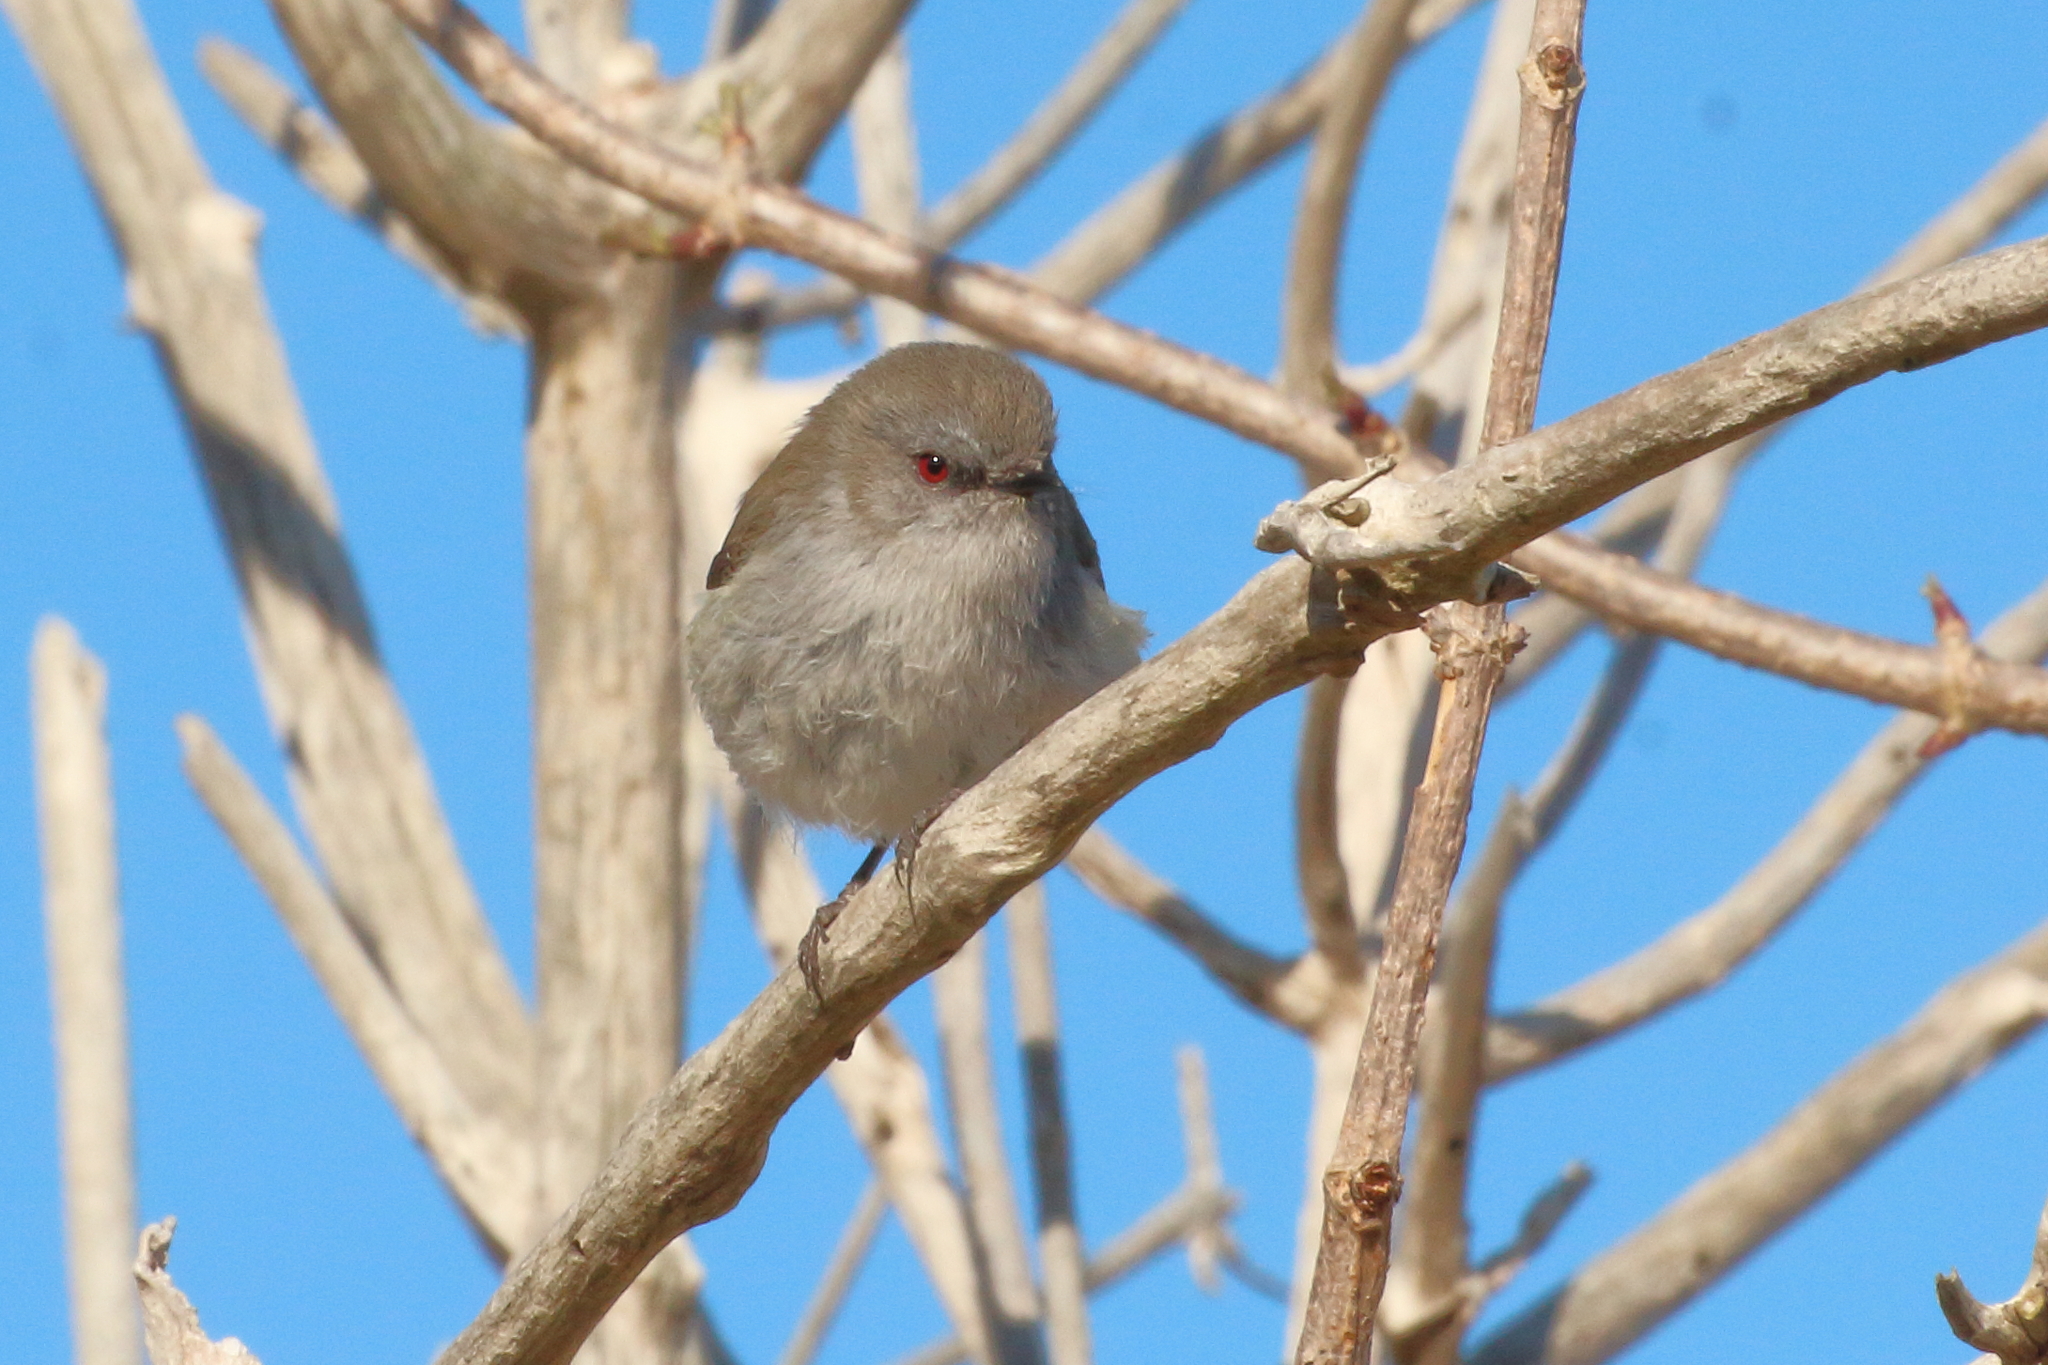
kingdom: Animalia
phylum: Chordata
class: Aves
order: Passeriformes
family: Acanthizidae
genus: Gerygone
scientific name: Gerygone igata
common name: Grey gerygone
